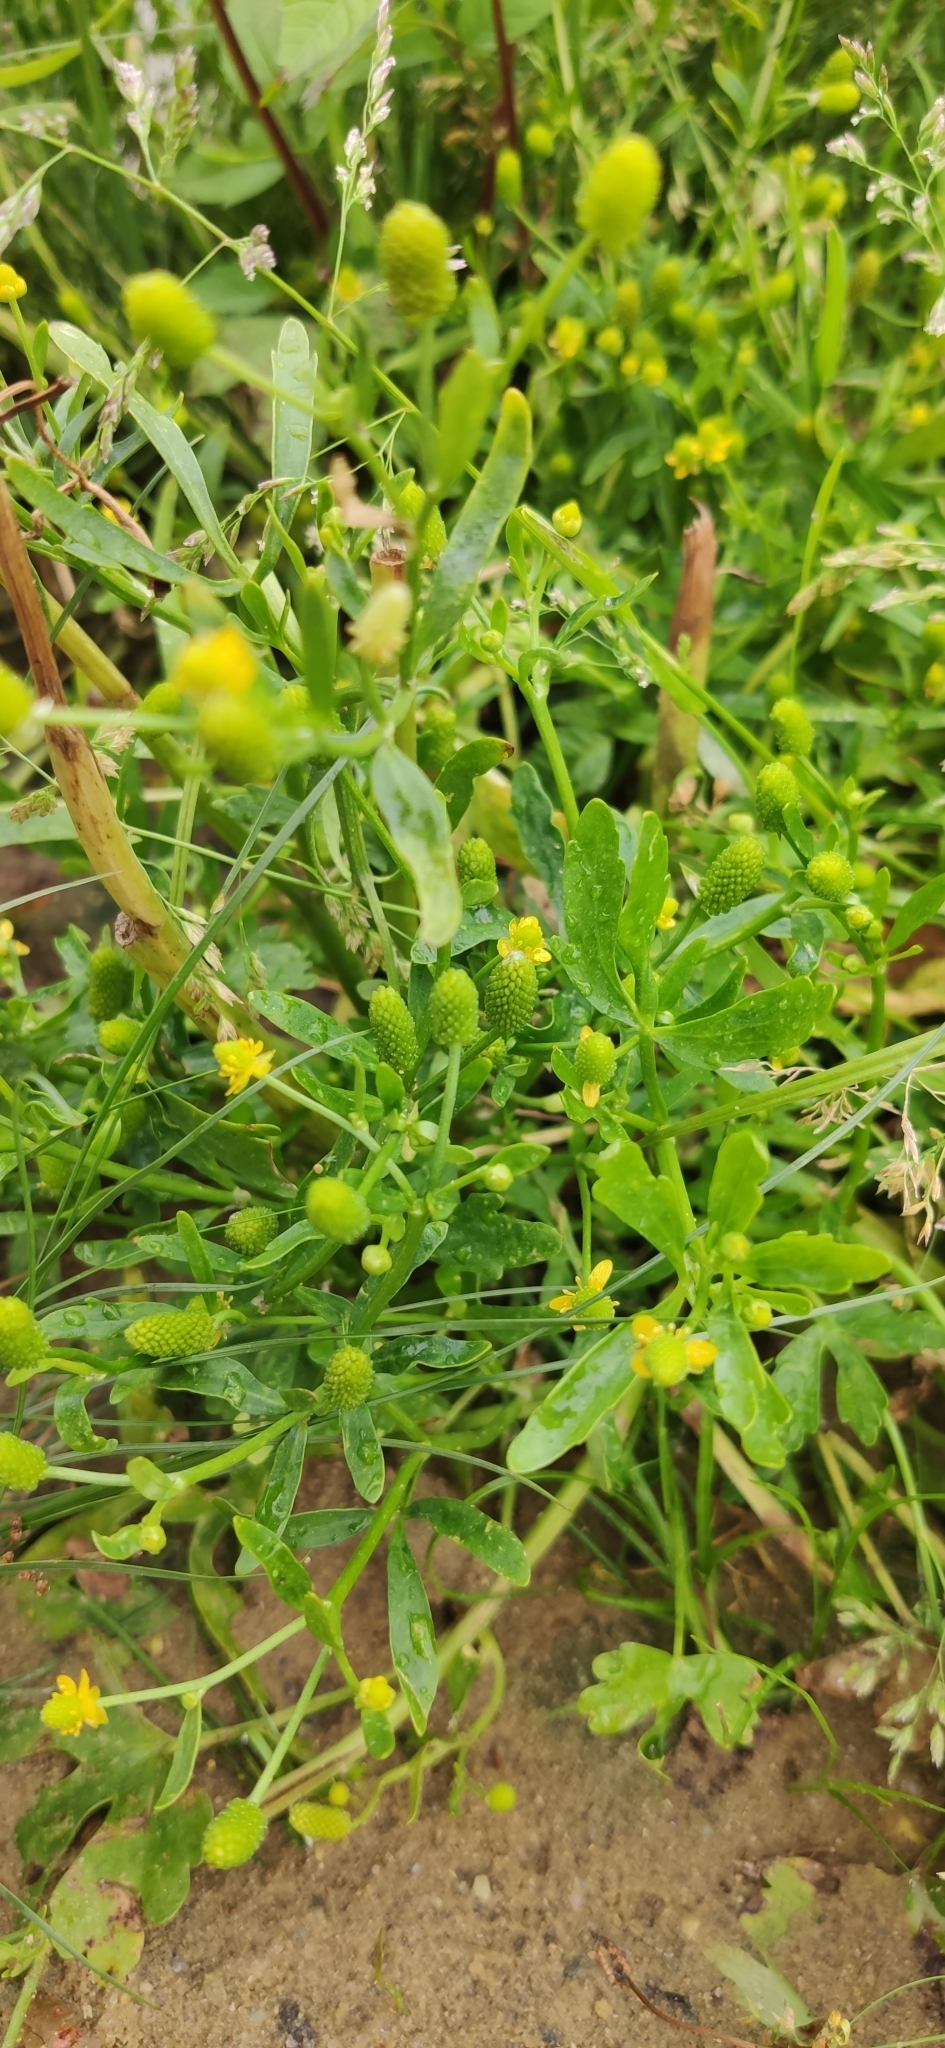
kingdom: Plantae
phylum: Tracheophyta
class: Magnoliopsida
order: Ranunculales
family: Ranunculaceae
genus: Ranunculus
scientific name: Ranunculus sceleratus
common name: Celery-leaved buttercup
